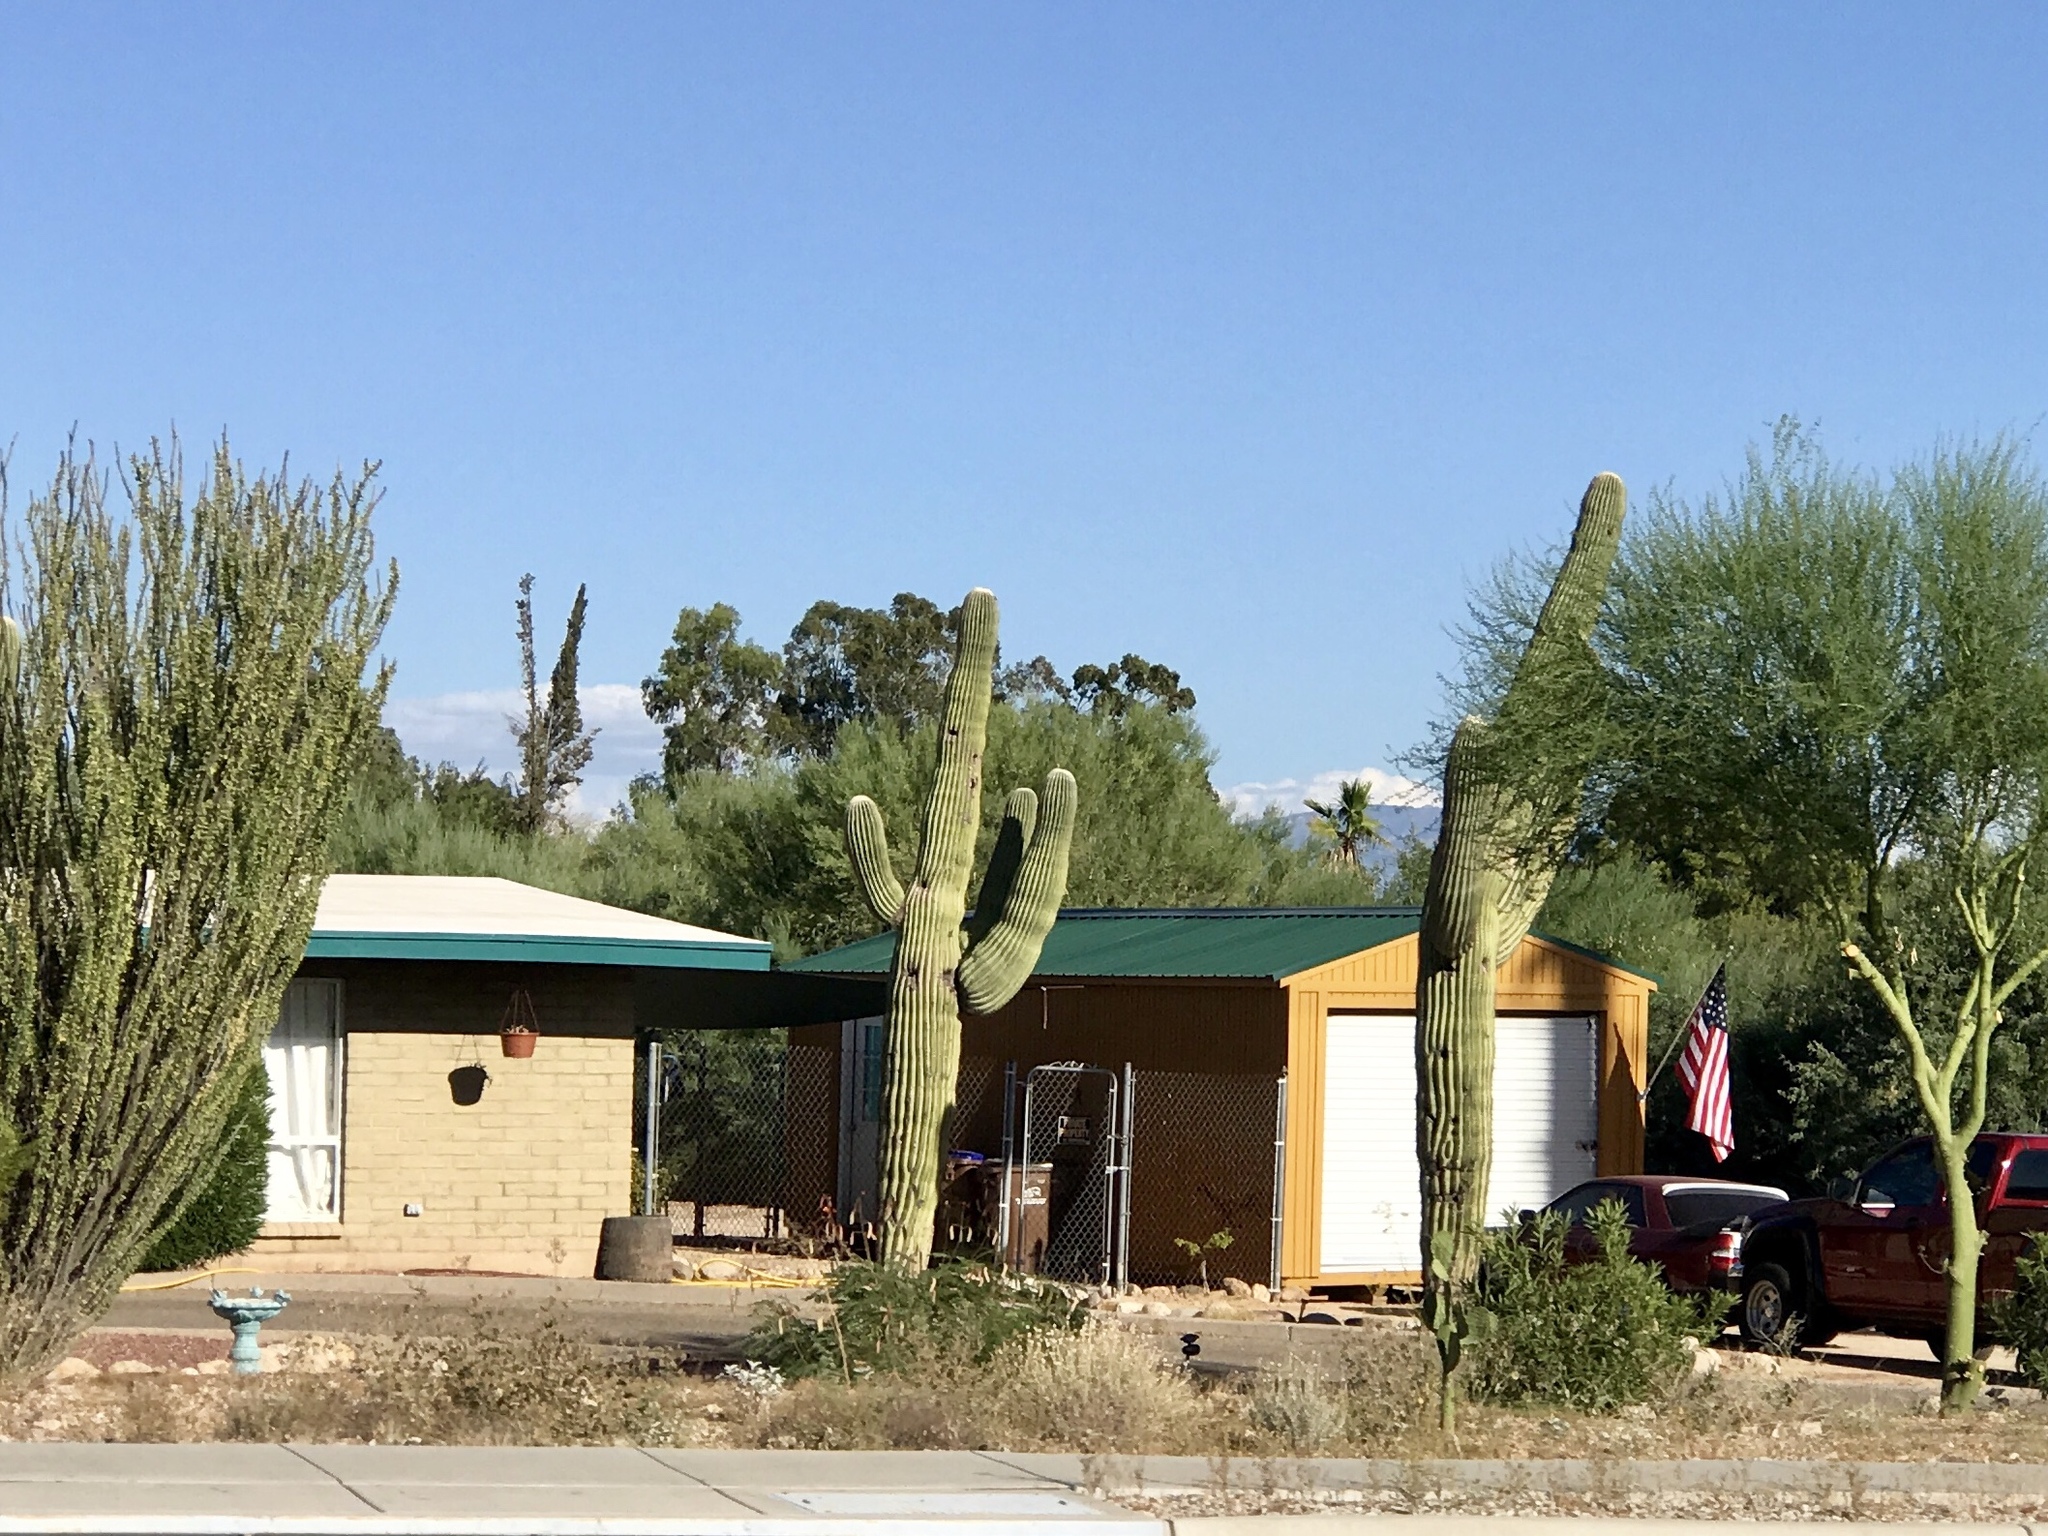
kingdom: Plantae
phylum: Tracheophyta
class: Magnoliopsida
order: Caryophyllales
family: Cactaceae
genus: Carnegiea
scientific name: Carnegiea gigantea
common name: Saguaro
